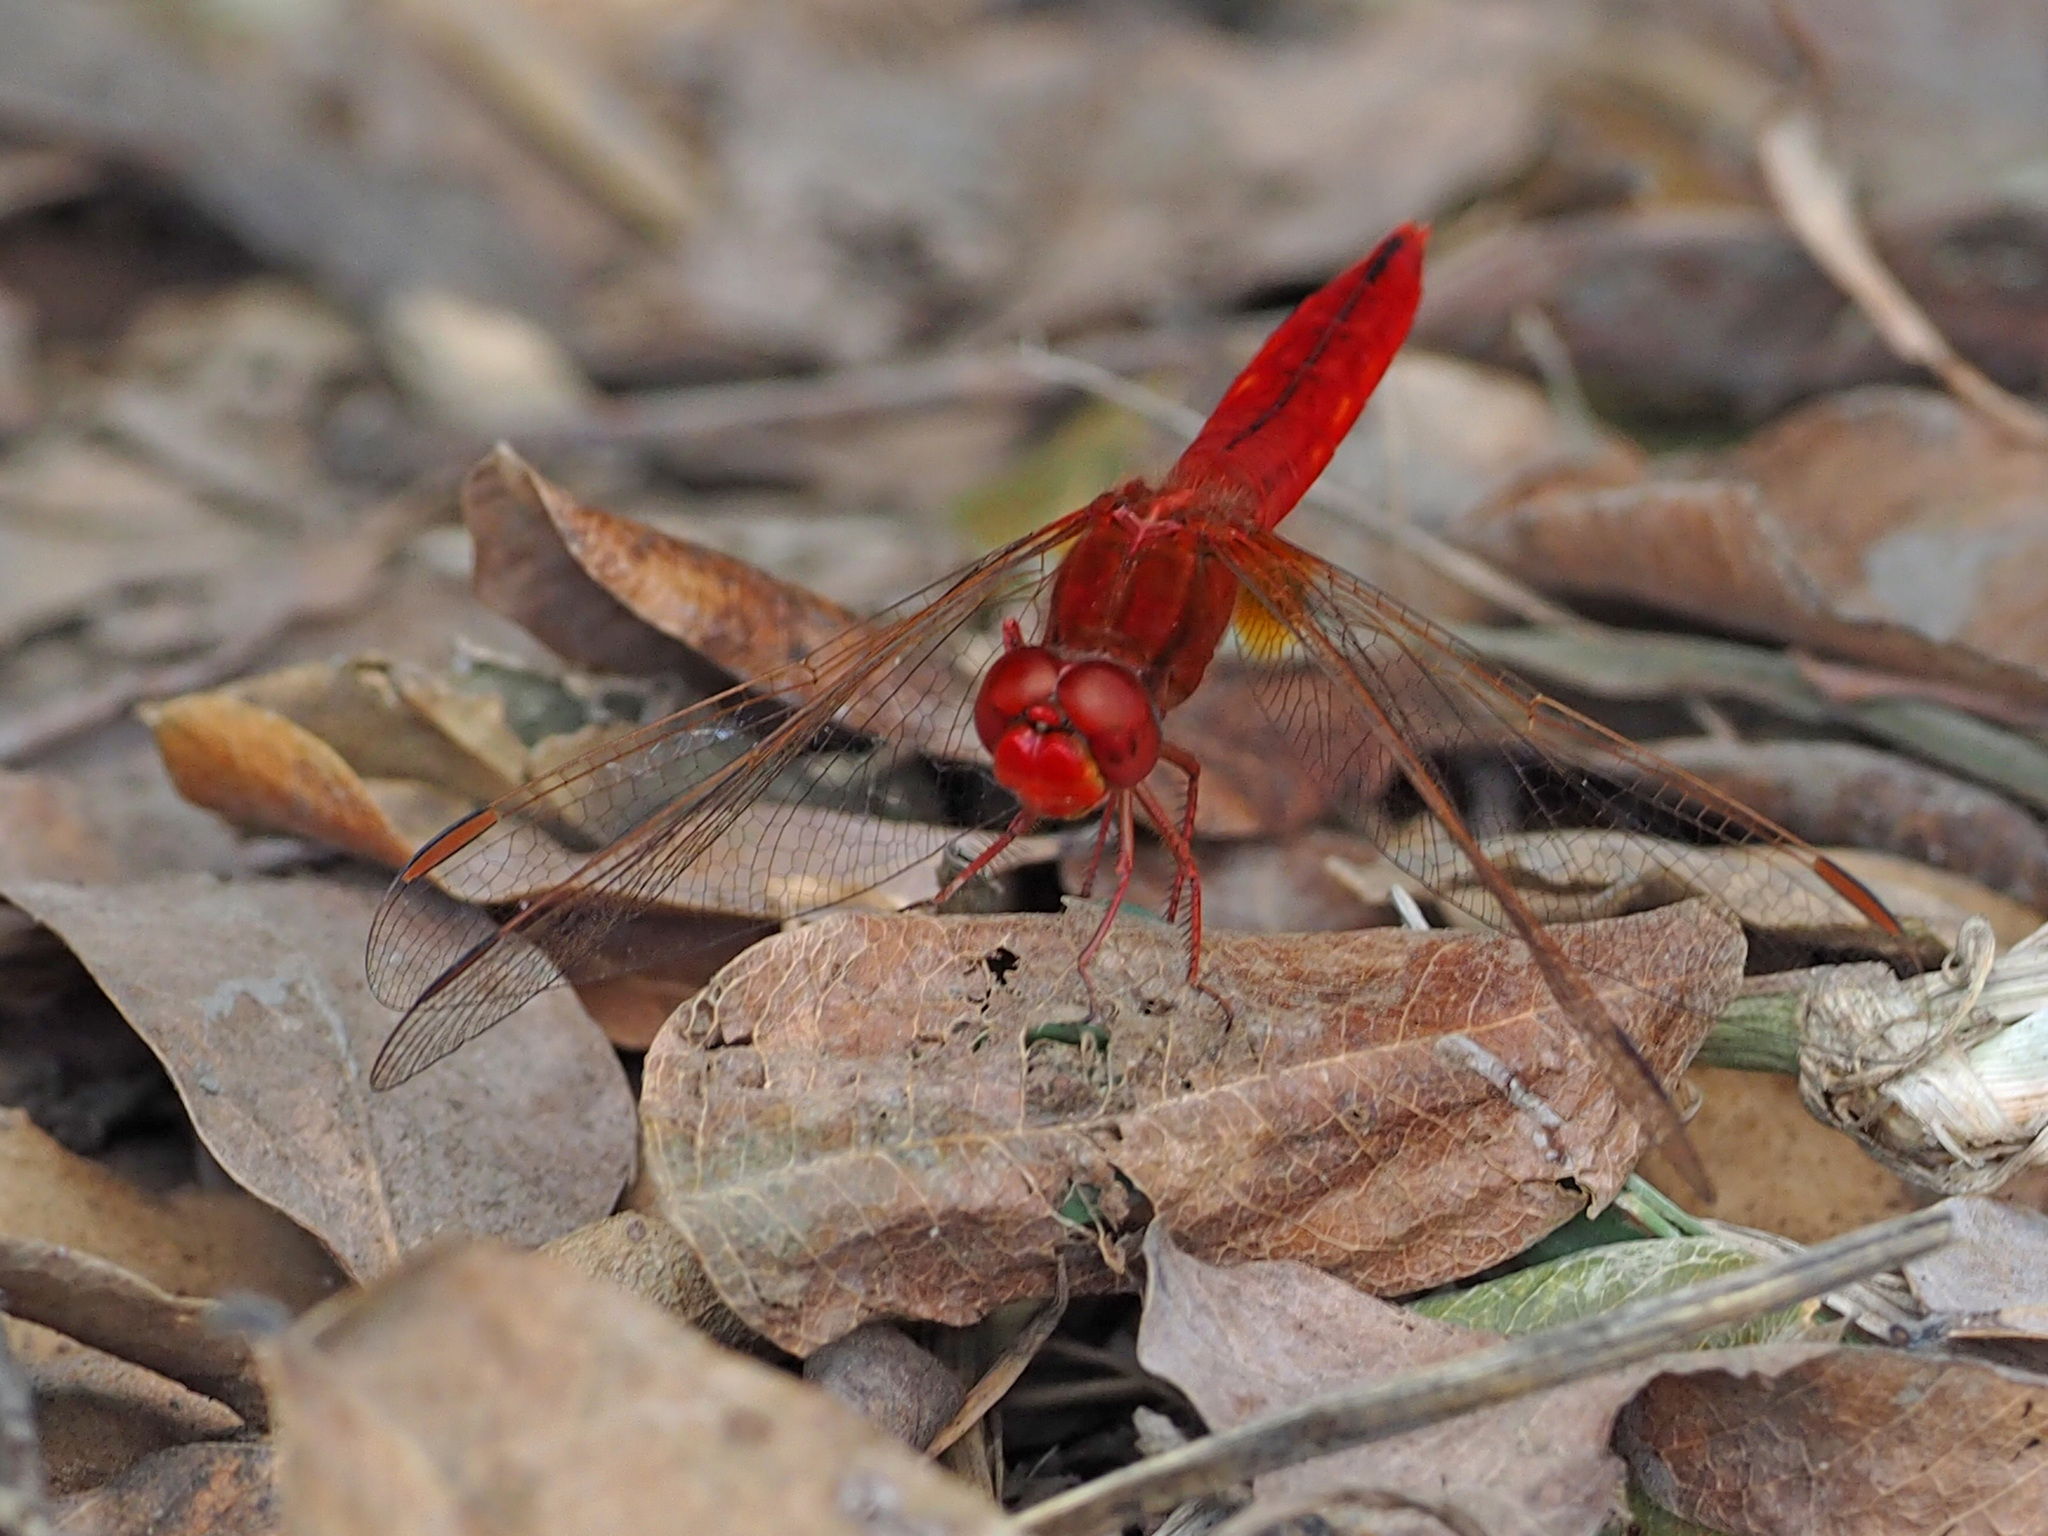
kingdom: Animalia
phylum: Arthropoda
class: Insecta
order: Odonata
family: Libellulidae
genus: Crocothemis
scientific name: Crocothemis erythraea
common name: Scarlet dragonfly
